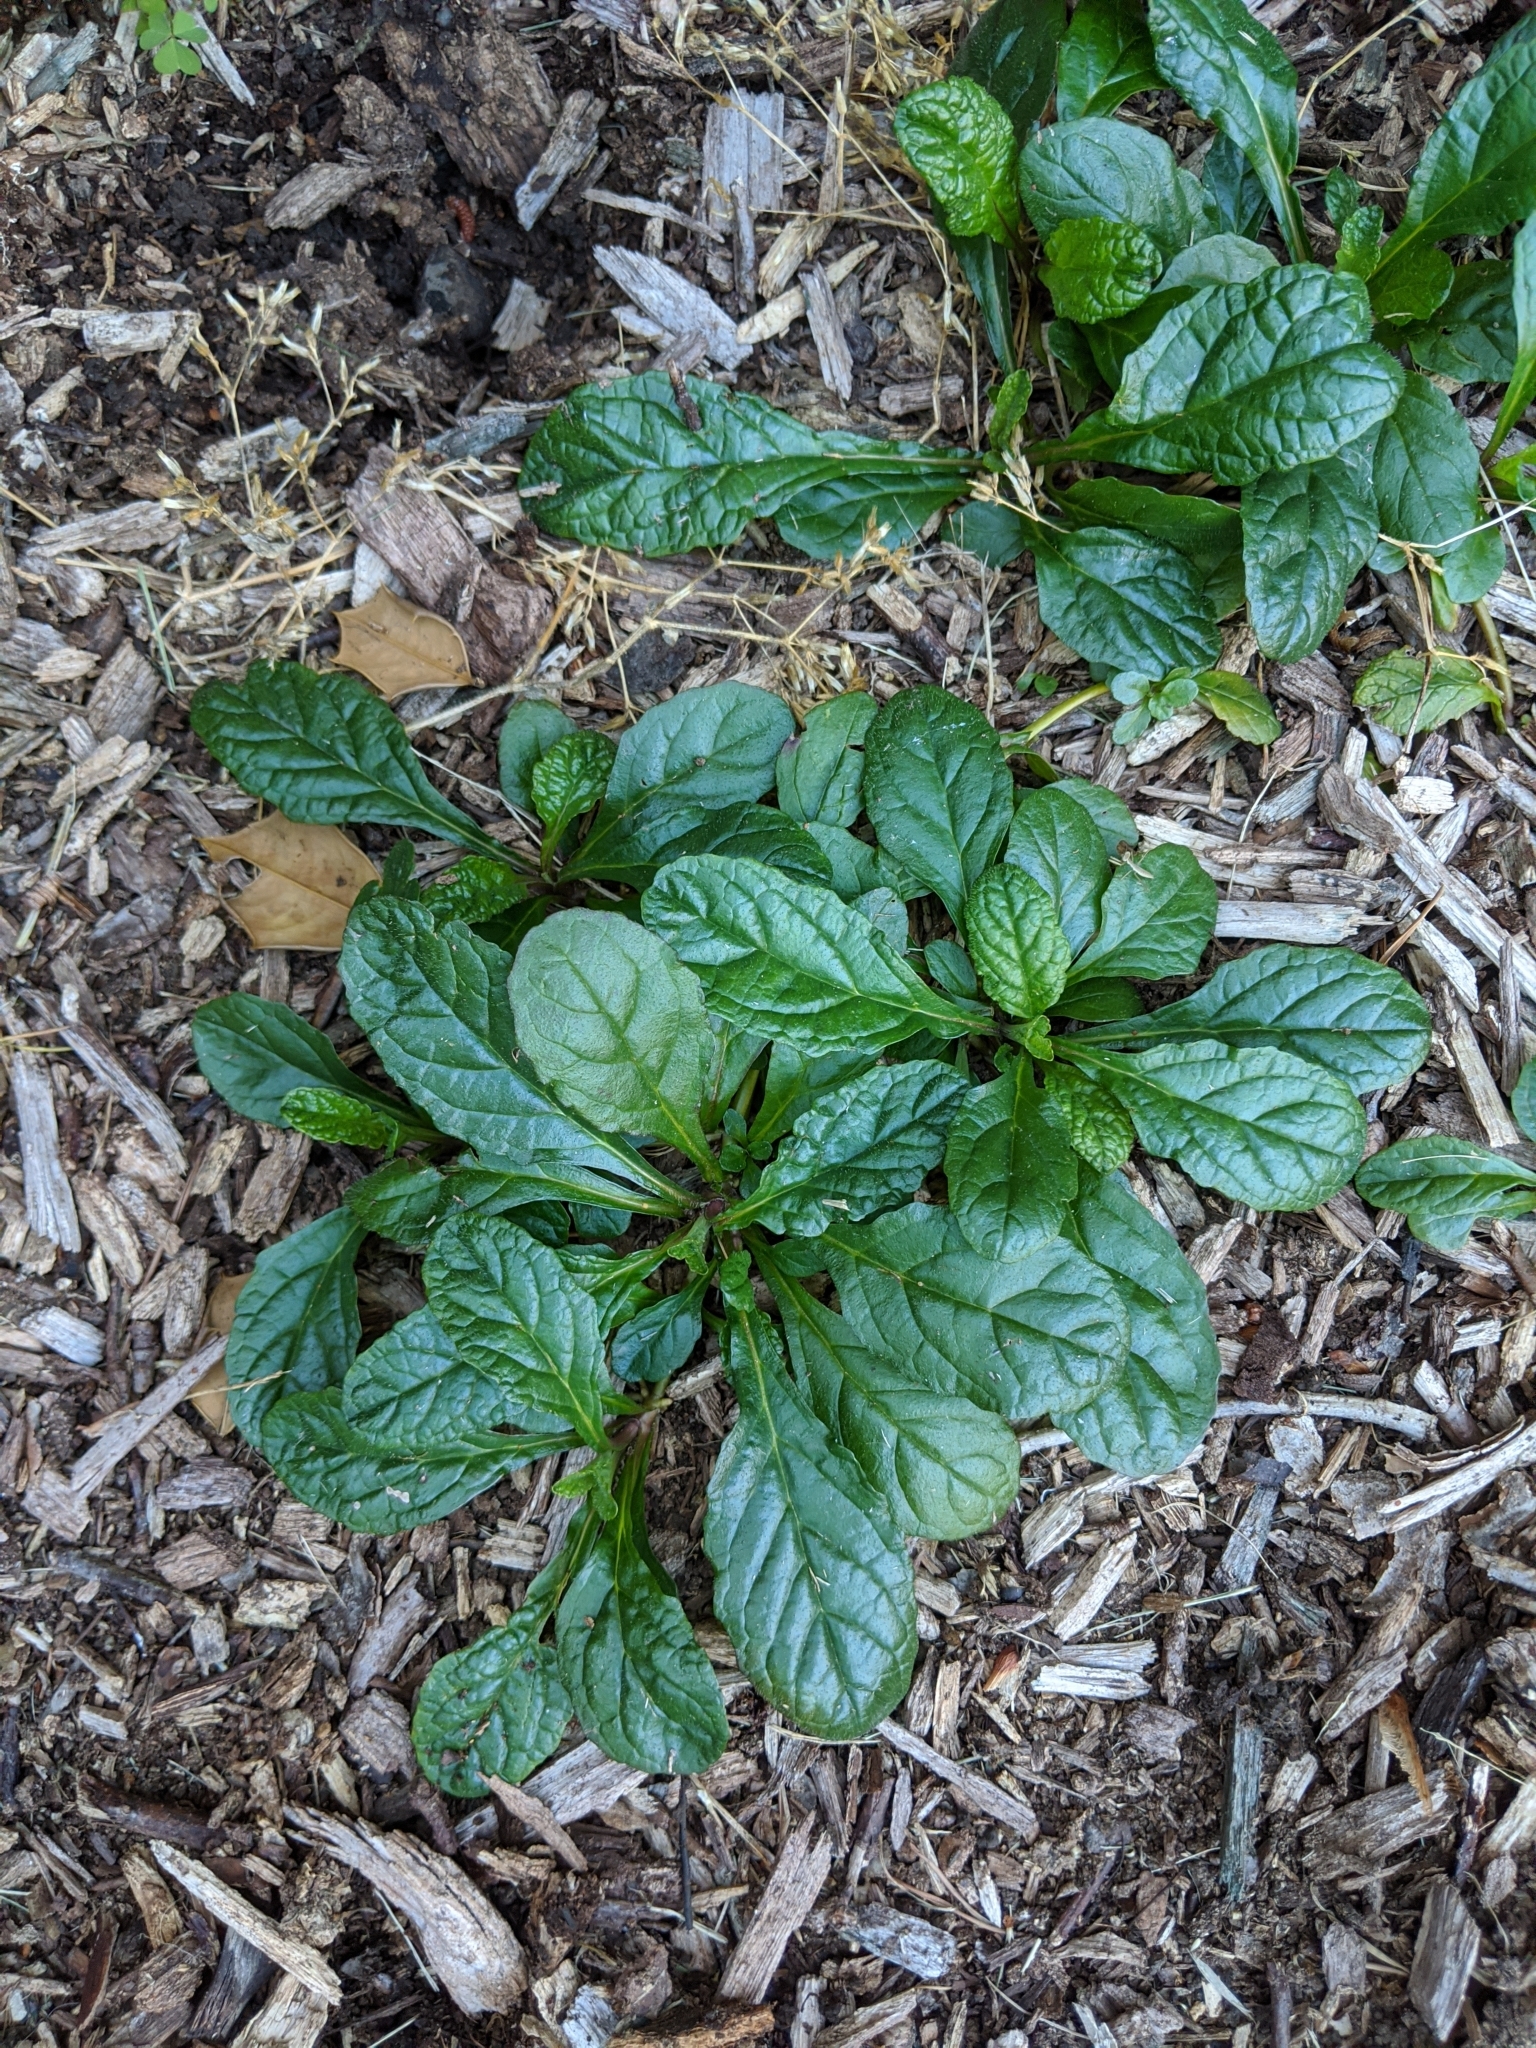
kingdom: Plantae
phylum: Tracheophyta
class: Magnoliopsida
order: Lamiales
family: Lamiaceae
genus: Ajuga
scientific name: Ajuga reptans
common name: Bugle
